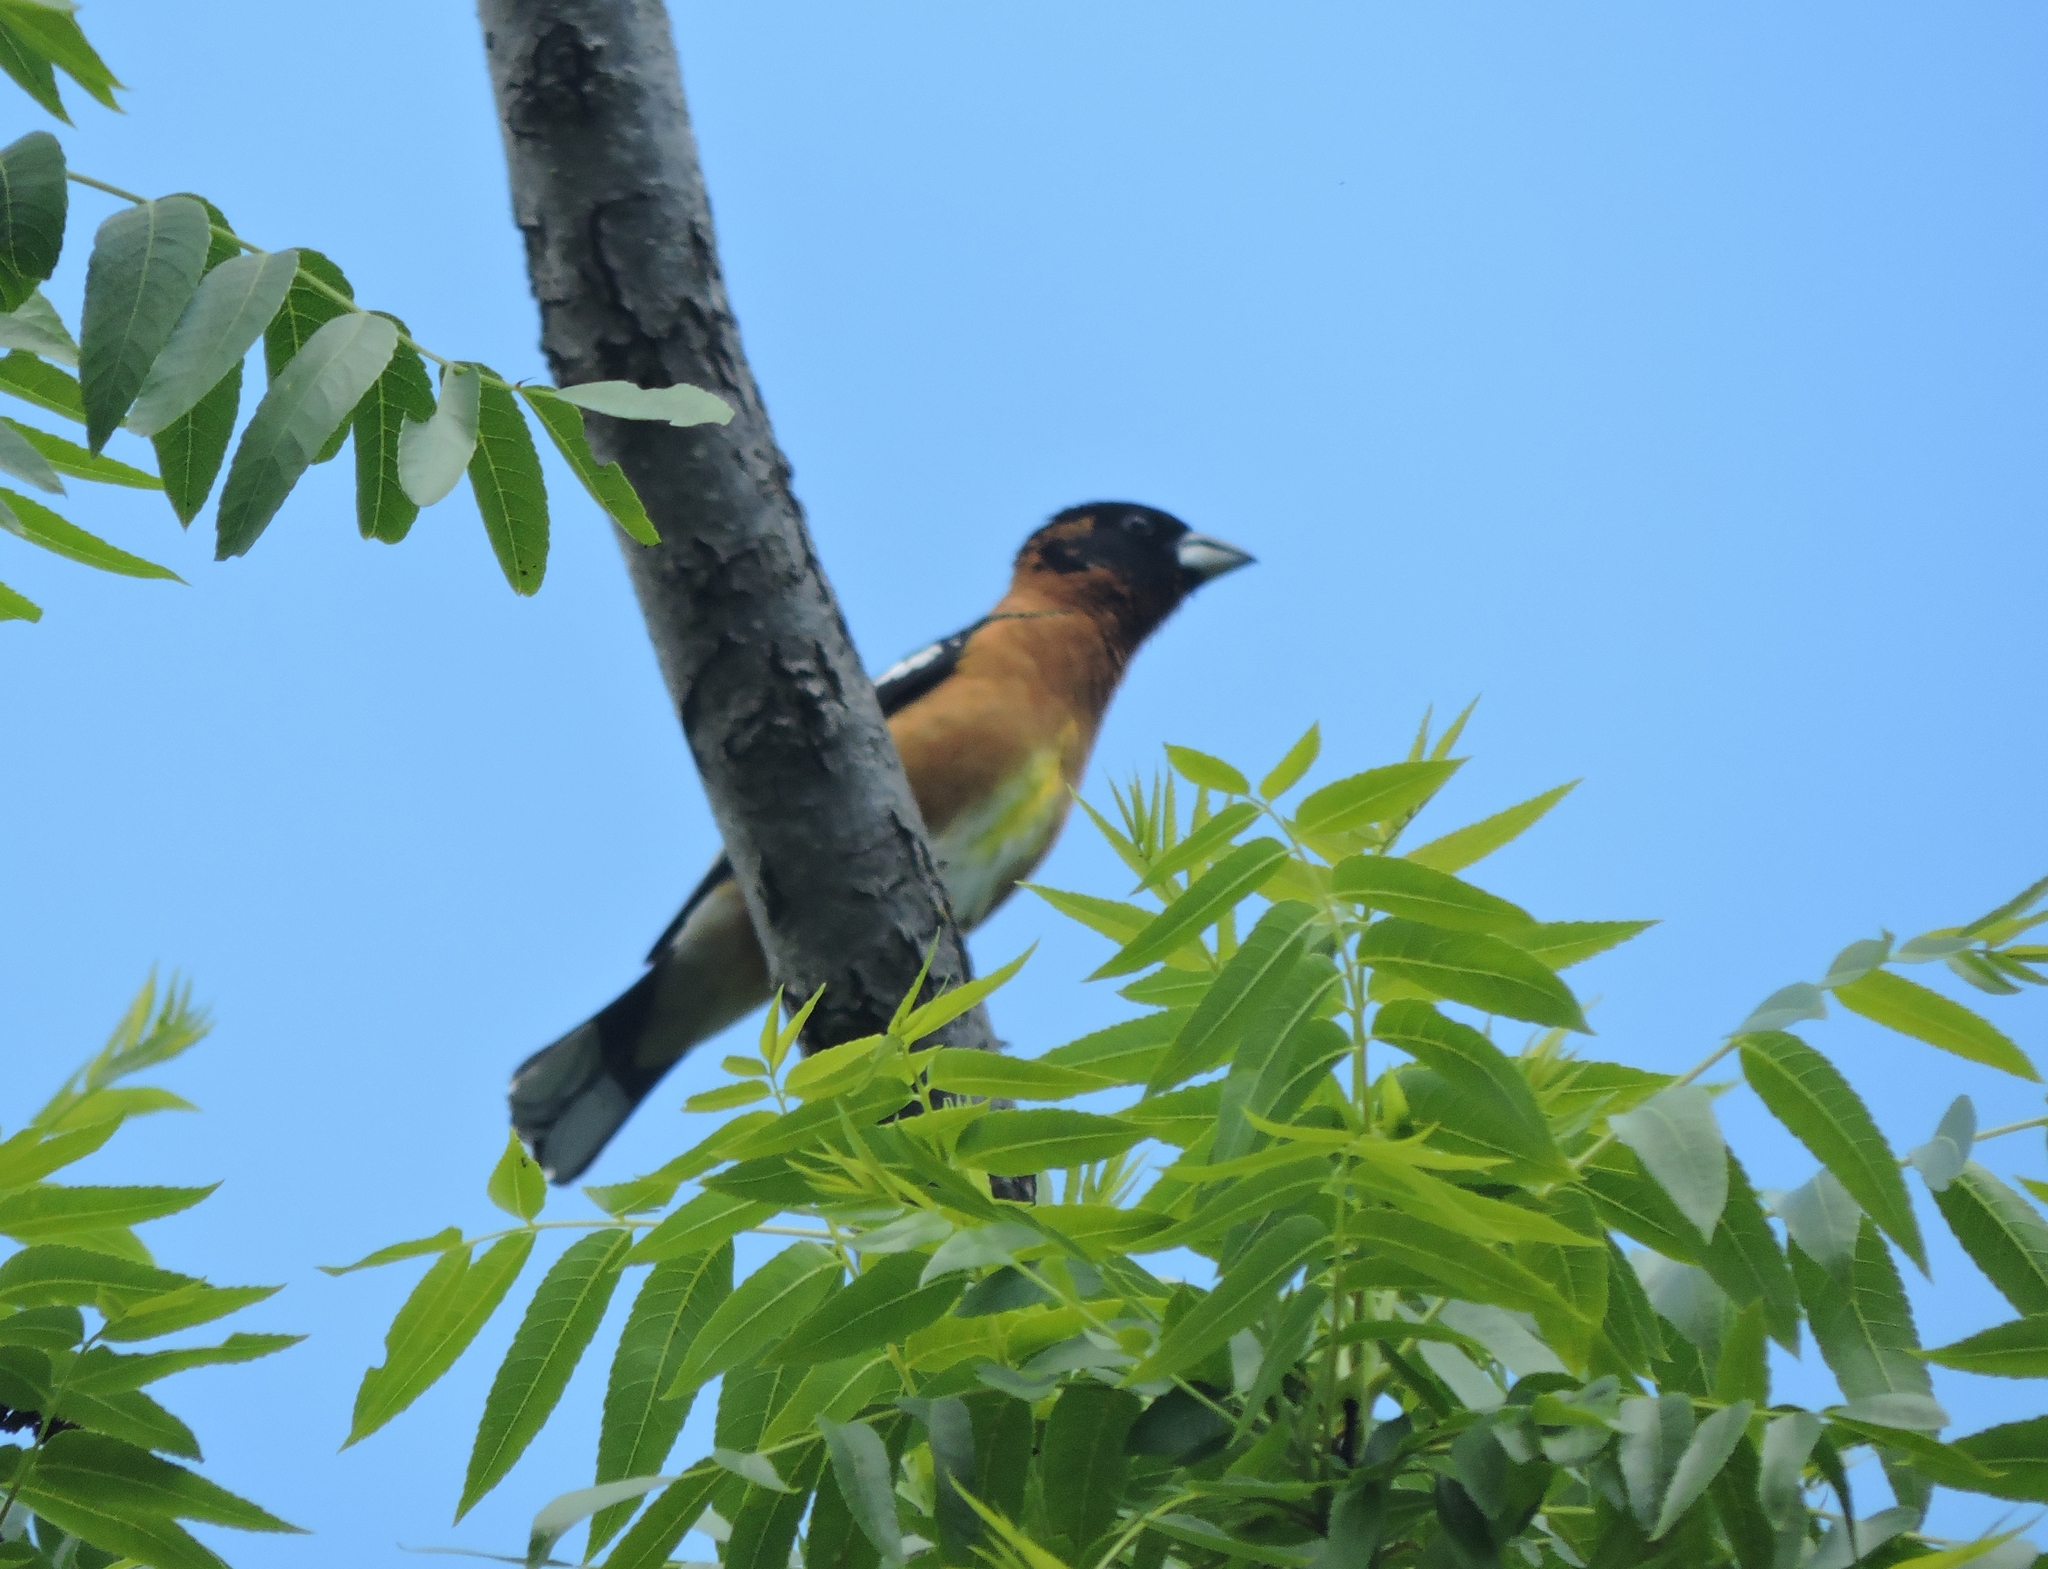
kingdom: Animalia
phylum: Chordata
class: Aves
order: Passeriformes
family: Cardinalidae
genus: Pheucticus
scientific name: Pheucticus melanocephalus
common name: Black-headed grosbeak
